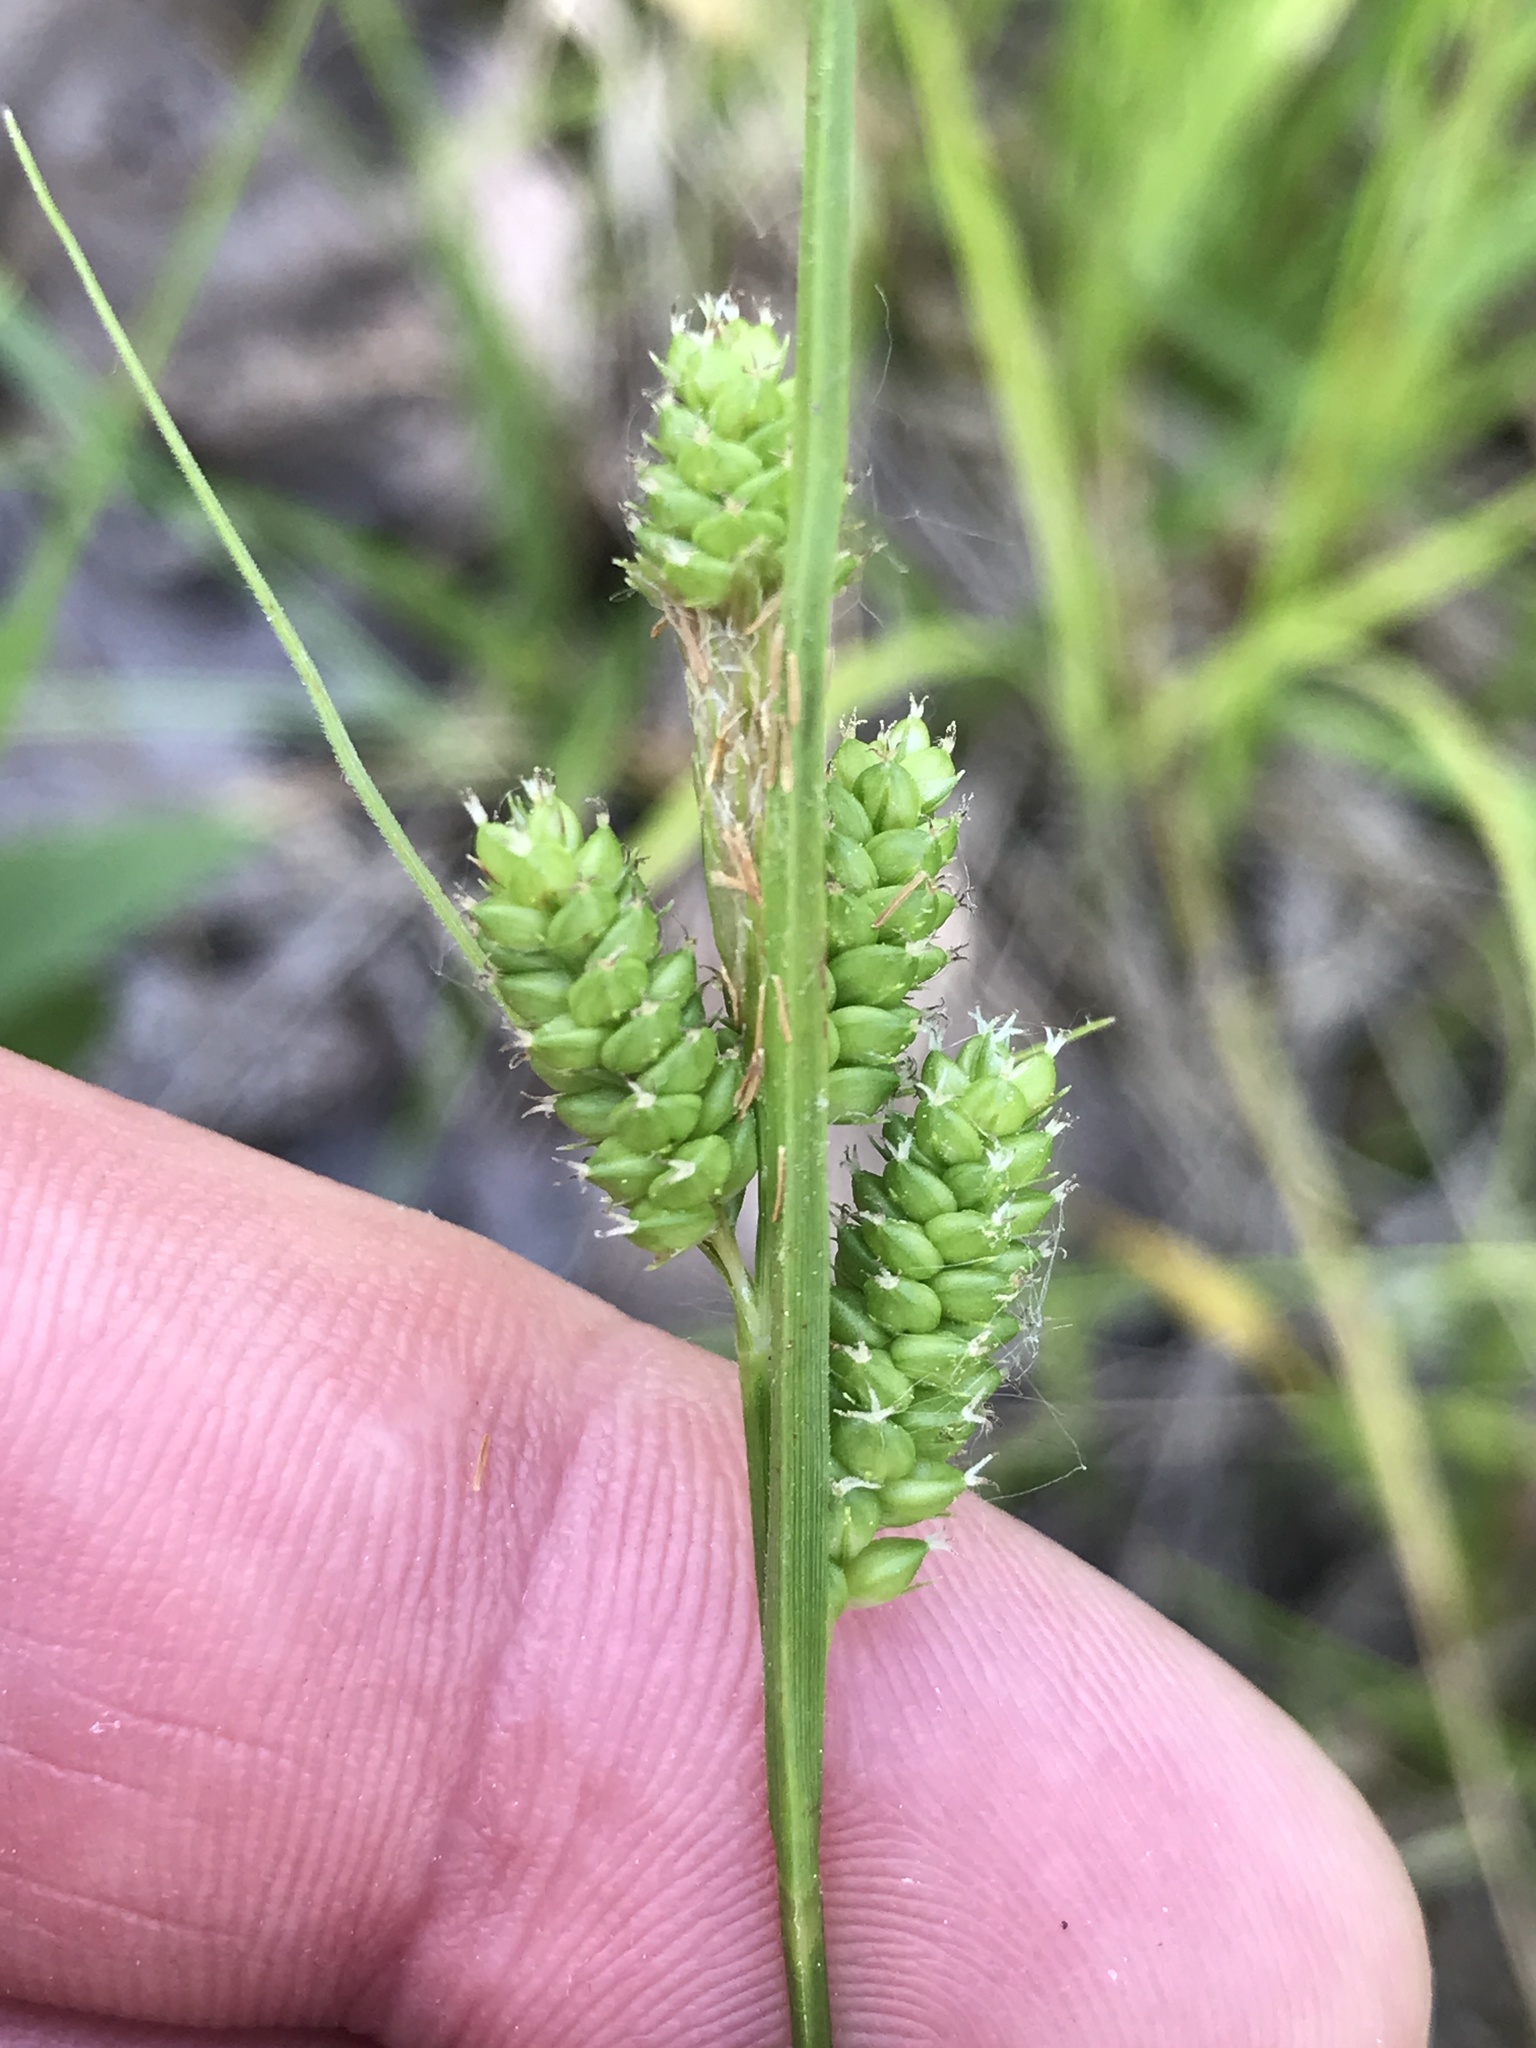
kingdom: Plantae
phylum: Tracheophyta
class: Liliopsida
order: Poales
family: Cyperaceae
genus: Carex
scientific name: Carex hirsutella
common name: Fuzzy wuzzy sedge
